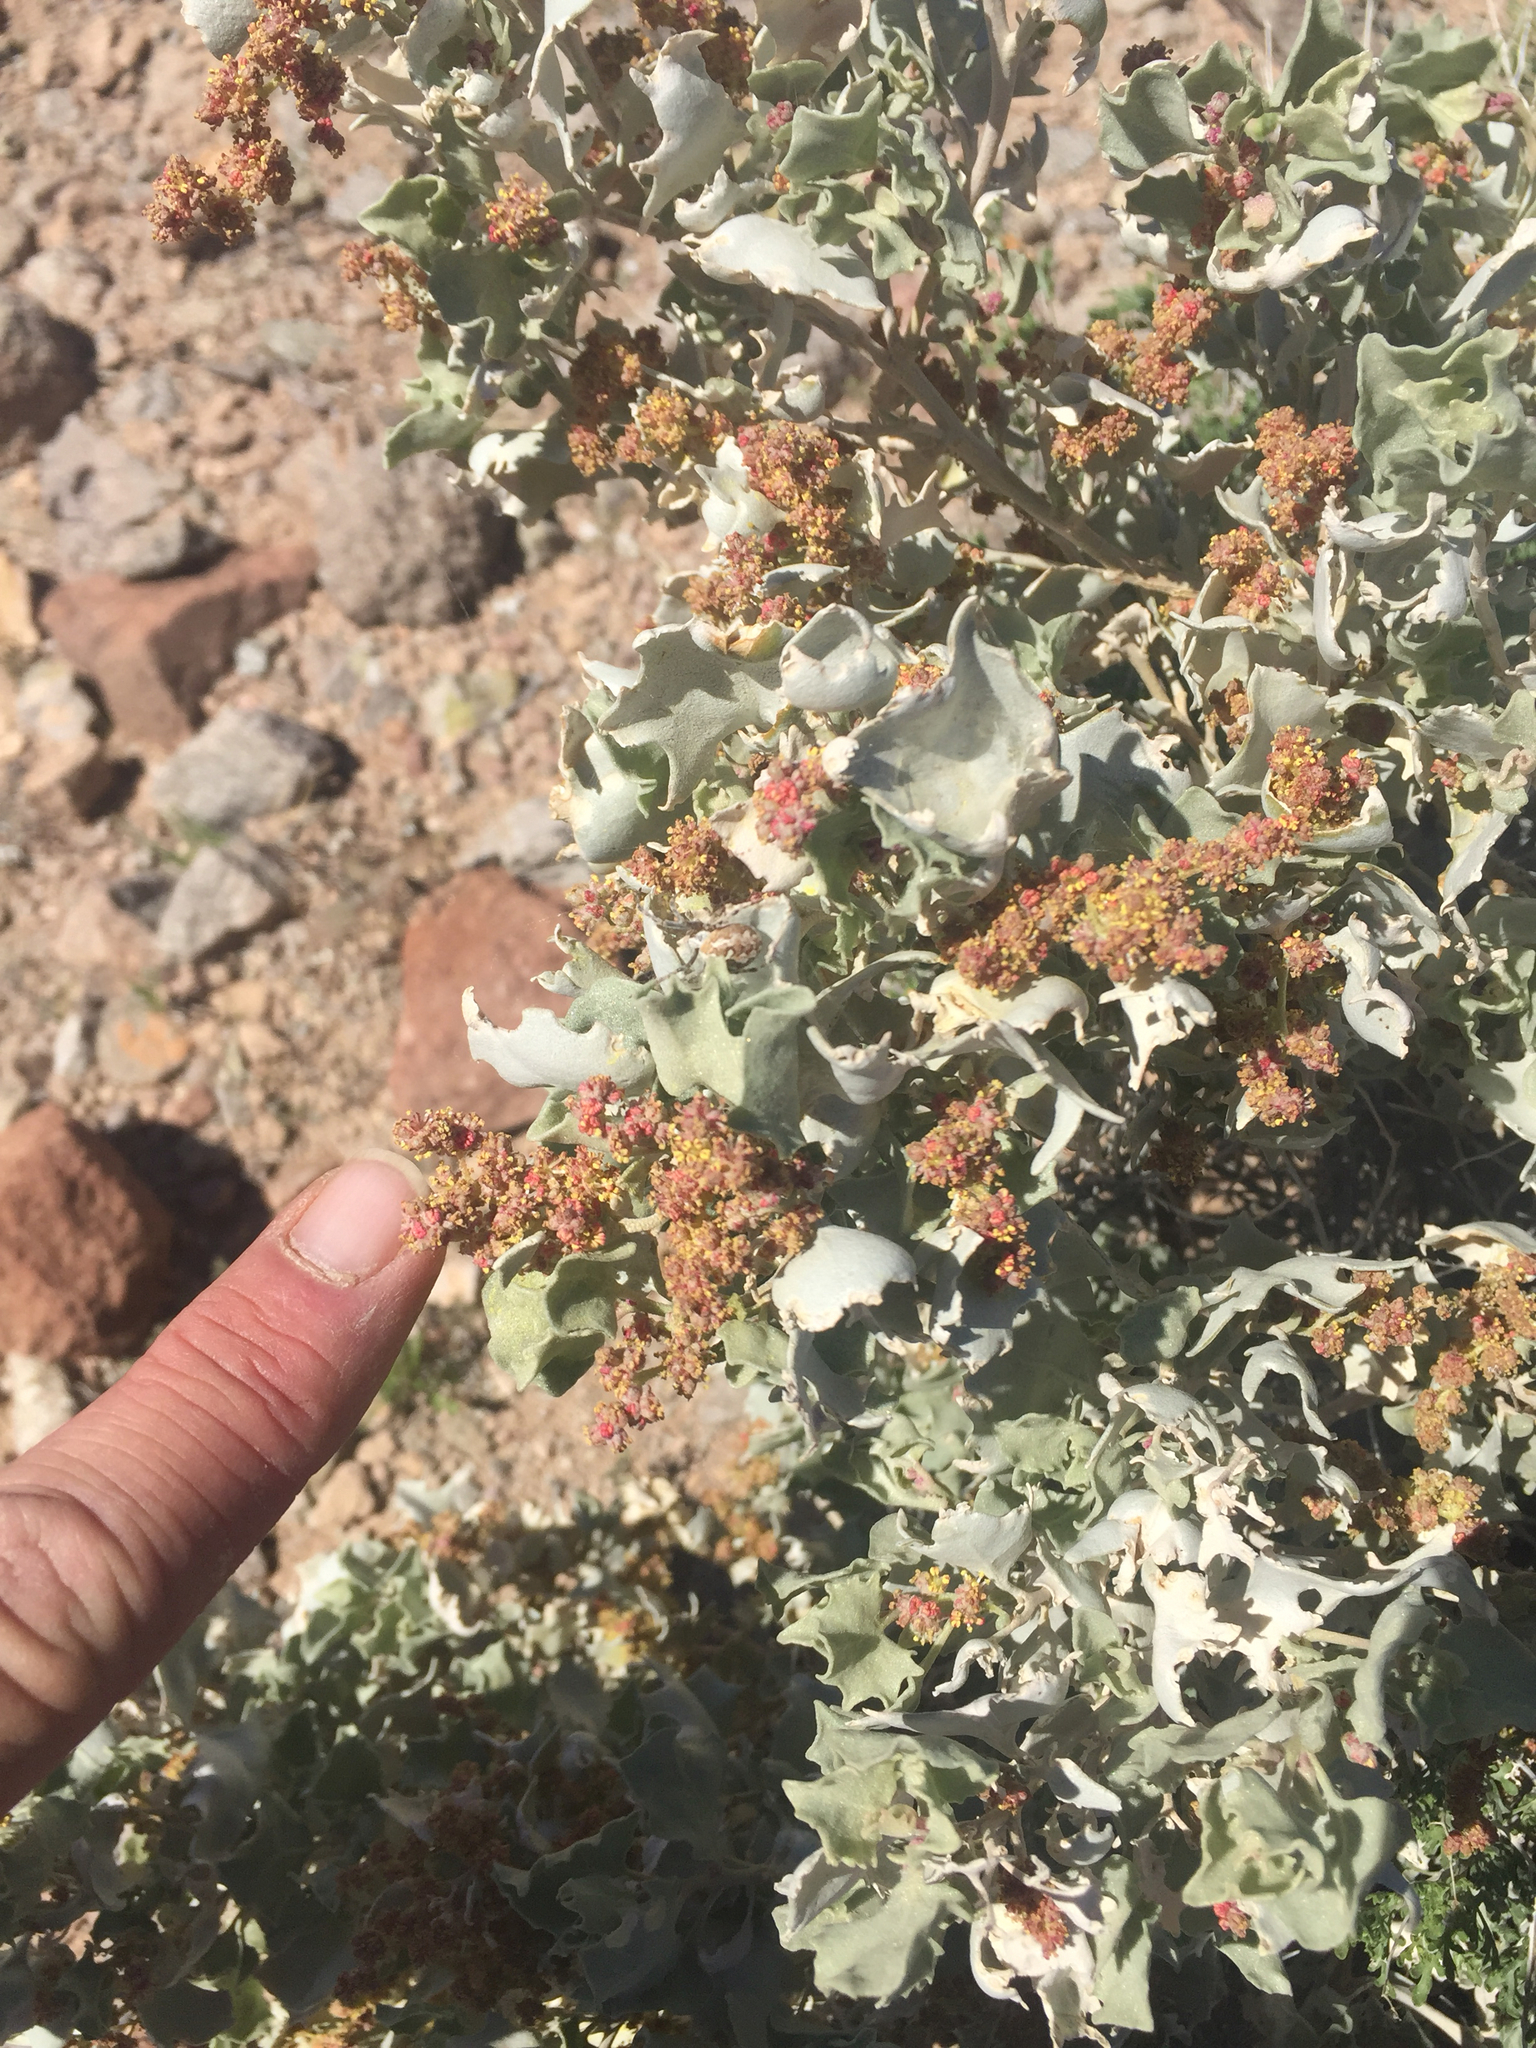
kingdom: Plantae
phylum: Tracheophyta
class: Magnoliopsida
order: Caryophyllales
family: Amaranthaceae
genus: Atriplex
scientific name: Atriplex hymenelytra
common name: Desert-holly
